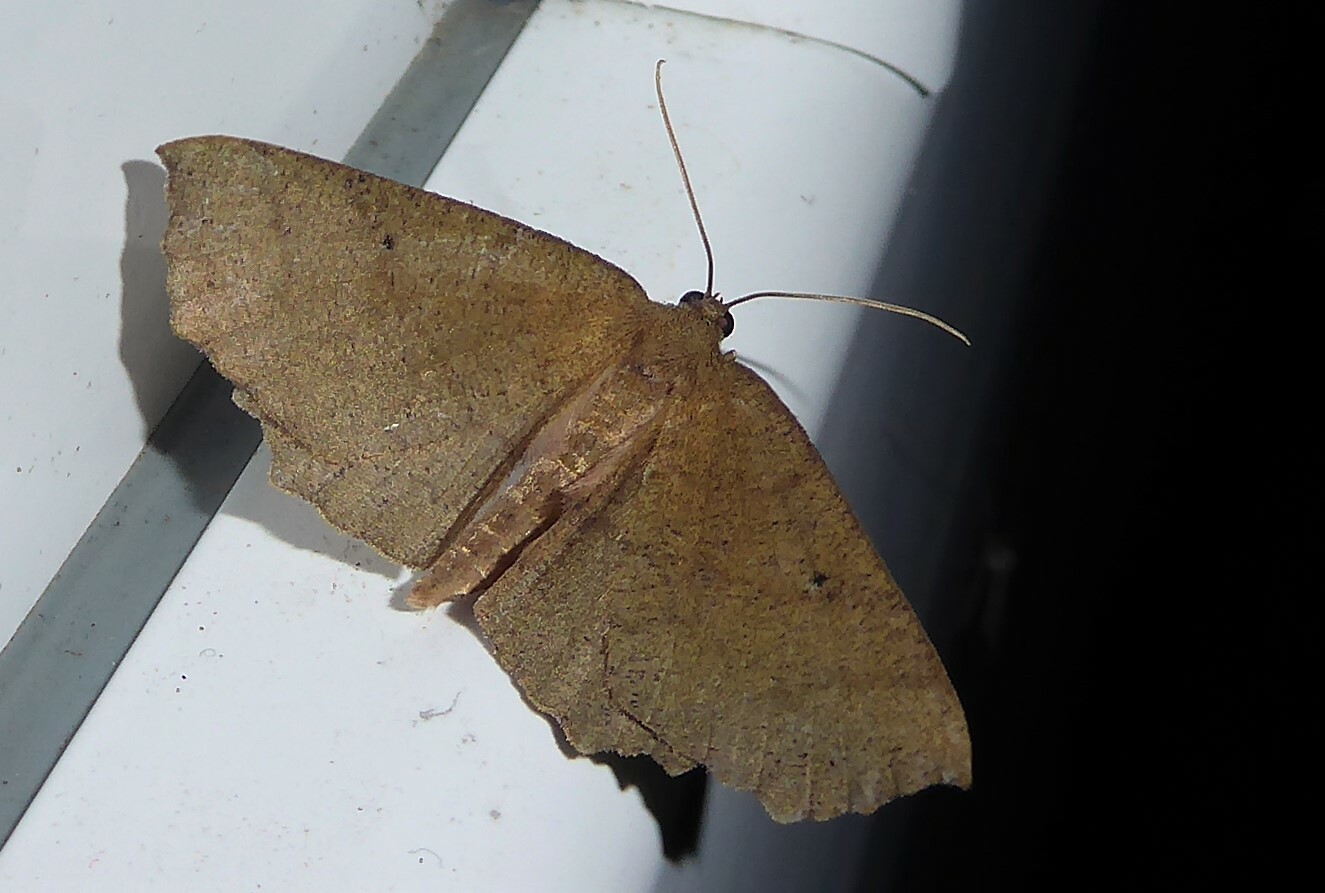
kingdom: Animalia
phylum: Arthropoda
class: Insecta
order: Lepidoptera
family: Geometridae
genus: Xyridacma
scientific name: Xyridacma ustaria
